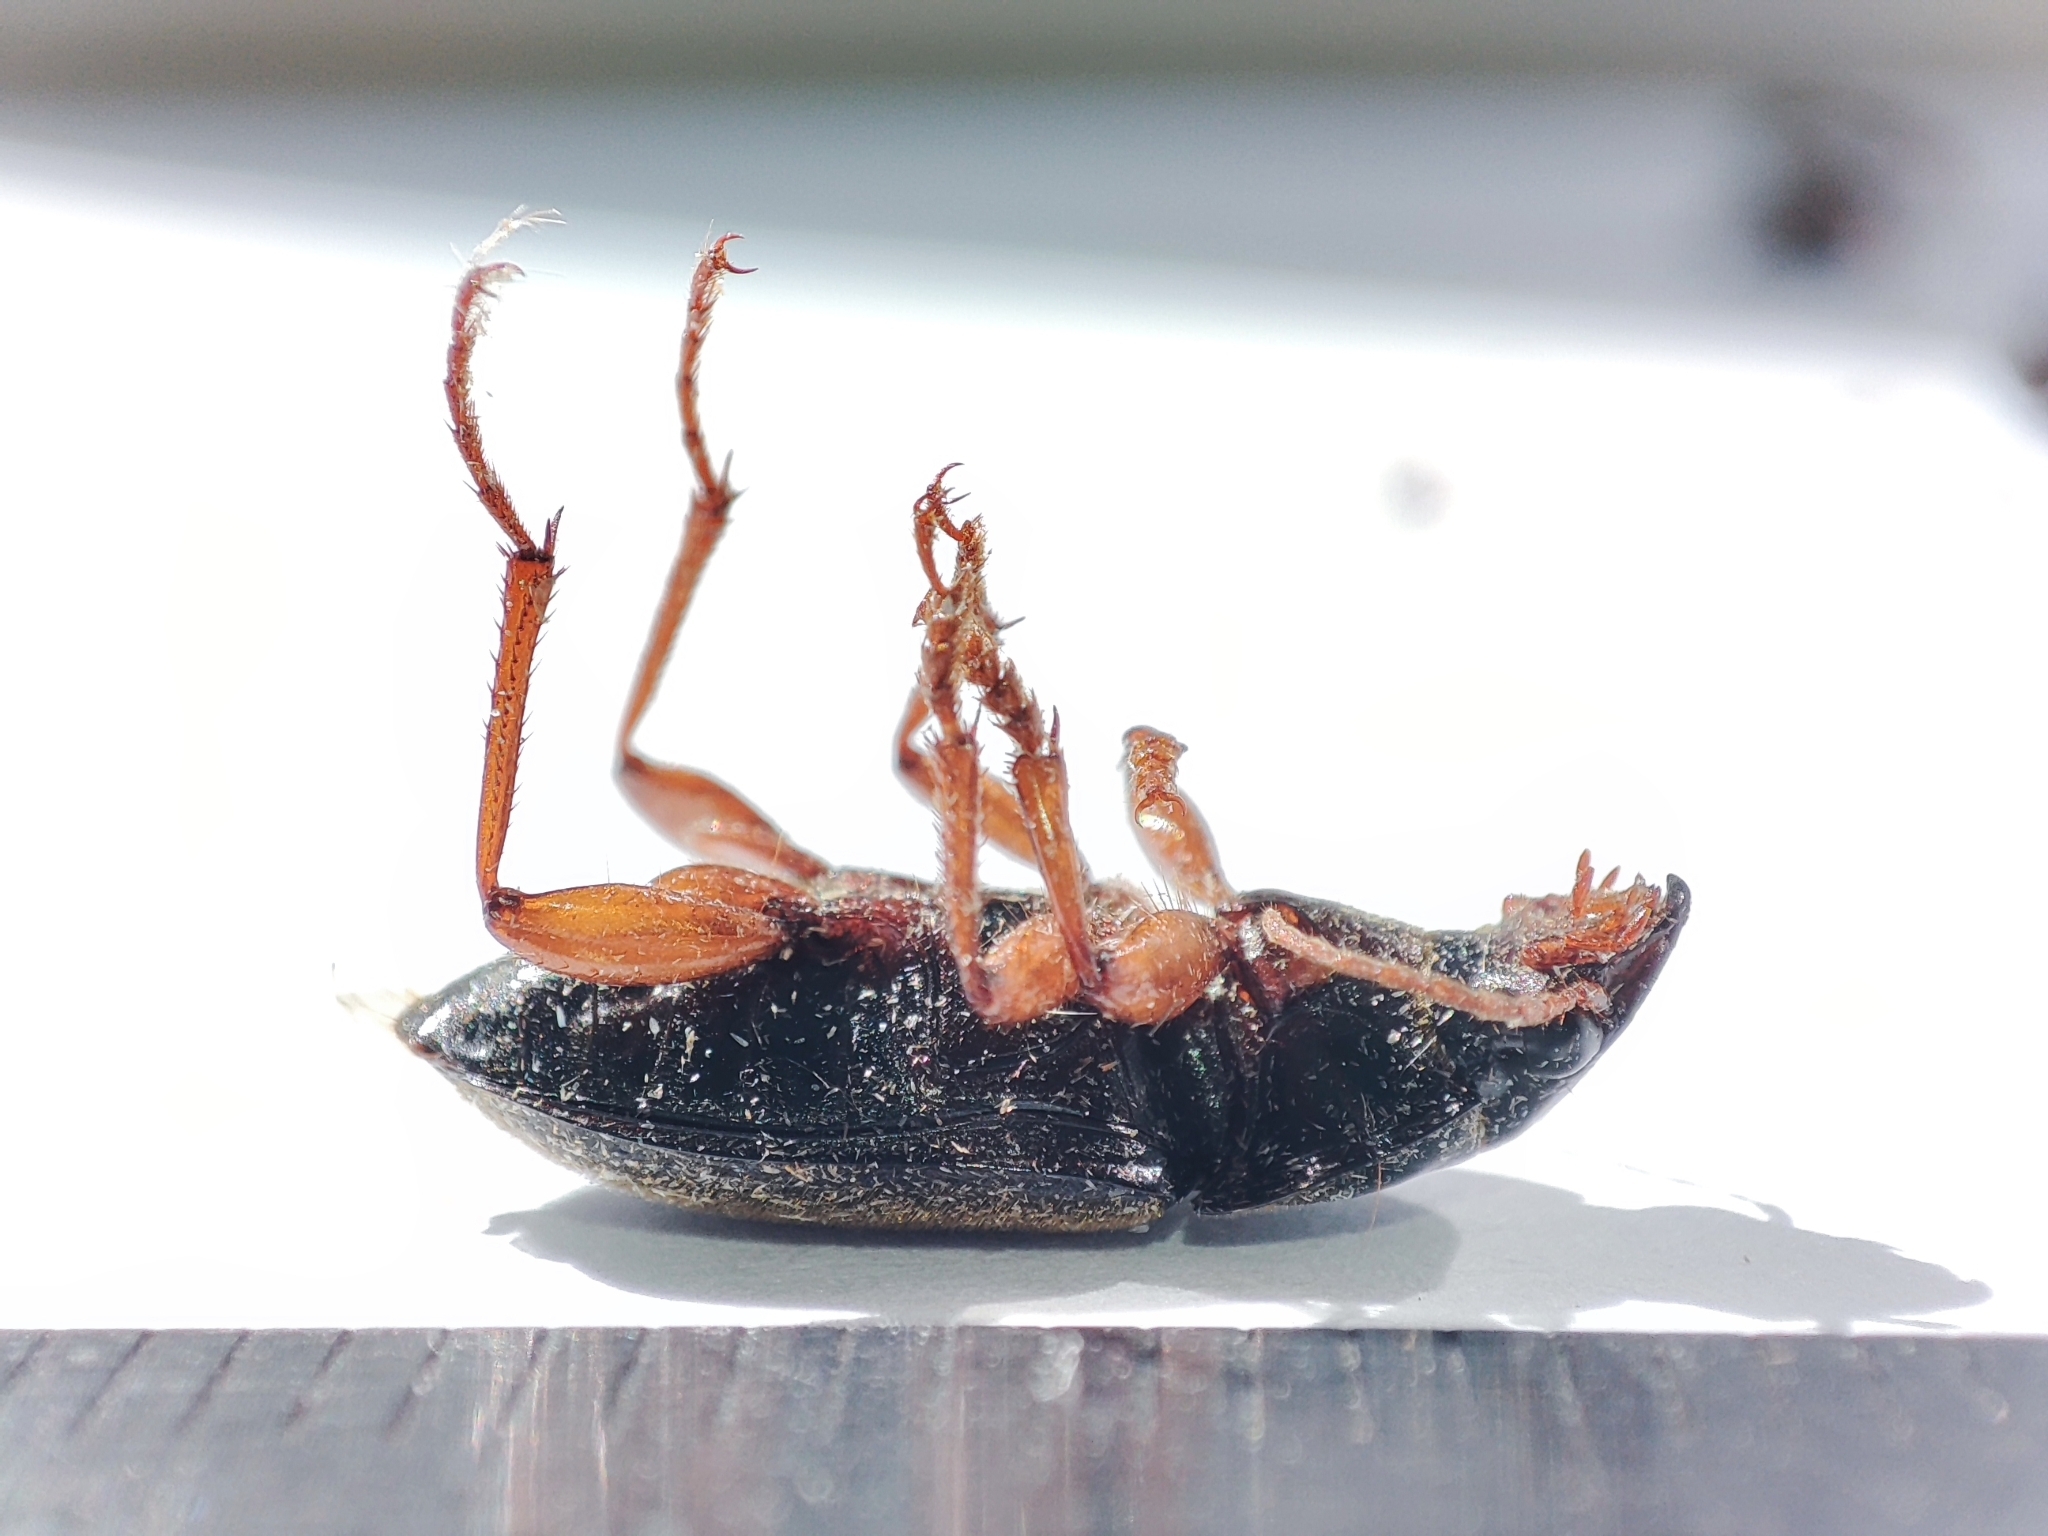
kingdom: Animalia
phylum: Arthropoda
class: Insecta
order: Coleoptera
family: Carabidae
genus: Harpalus
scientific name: Harpalus rufipes
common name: Strawberry harp ground beetle
